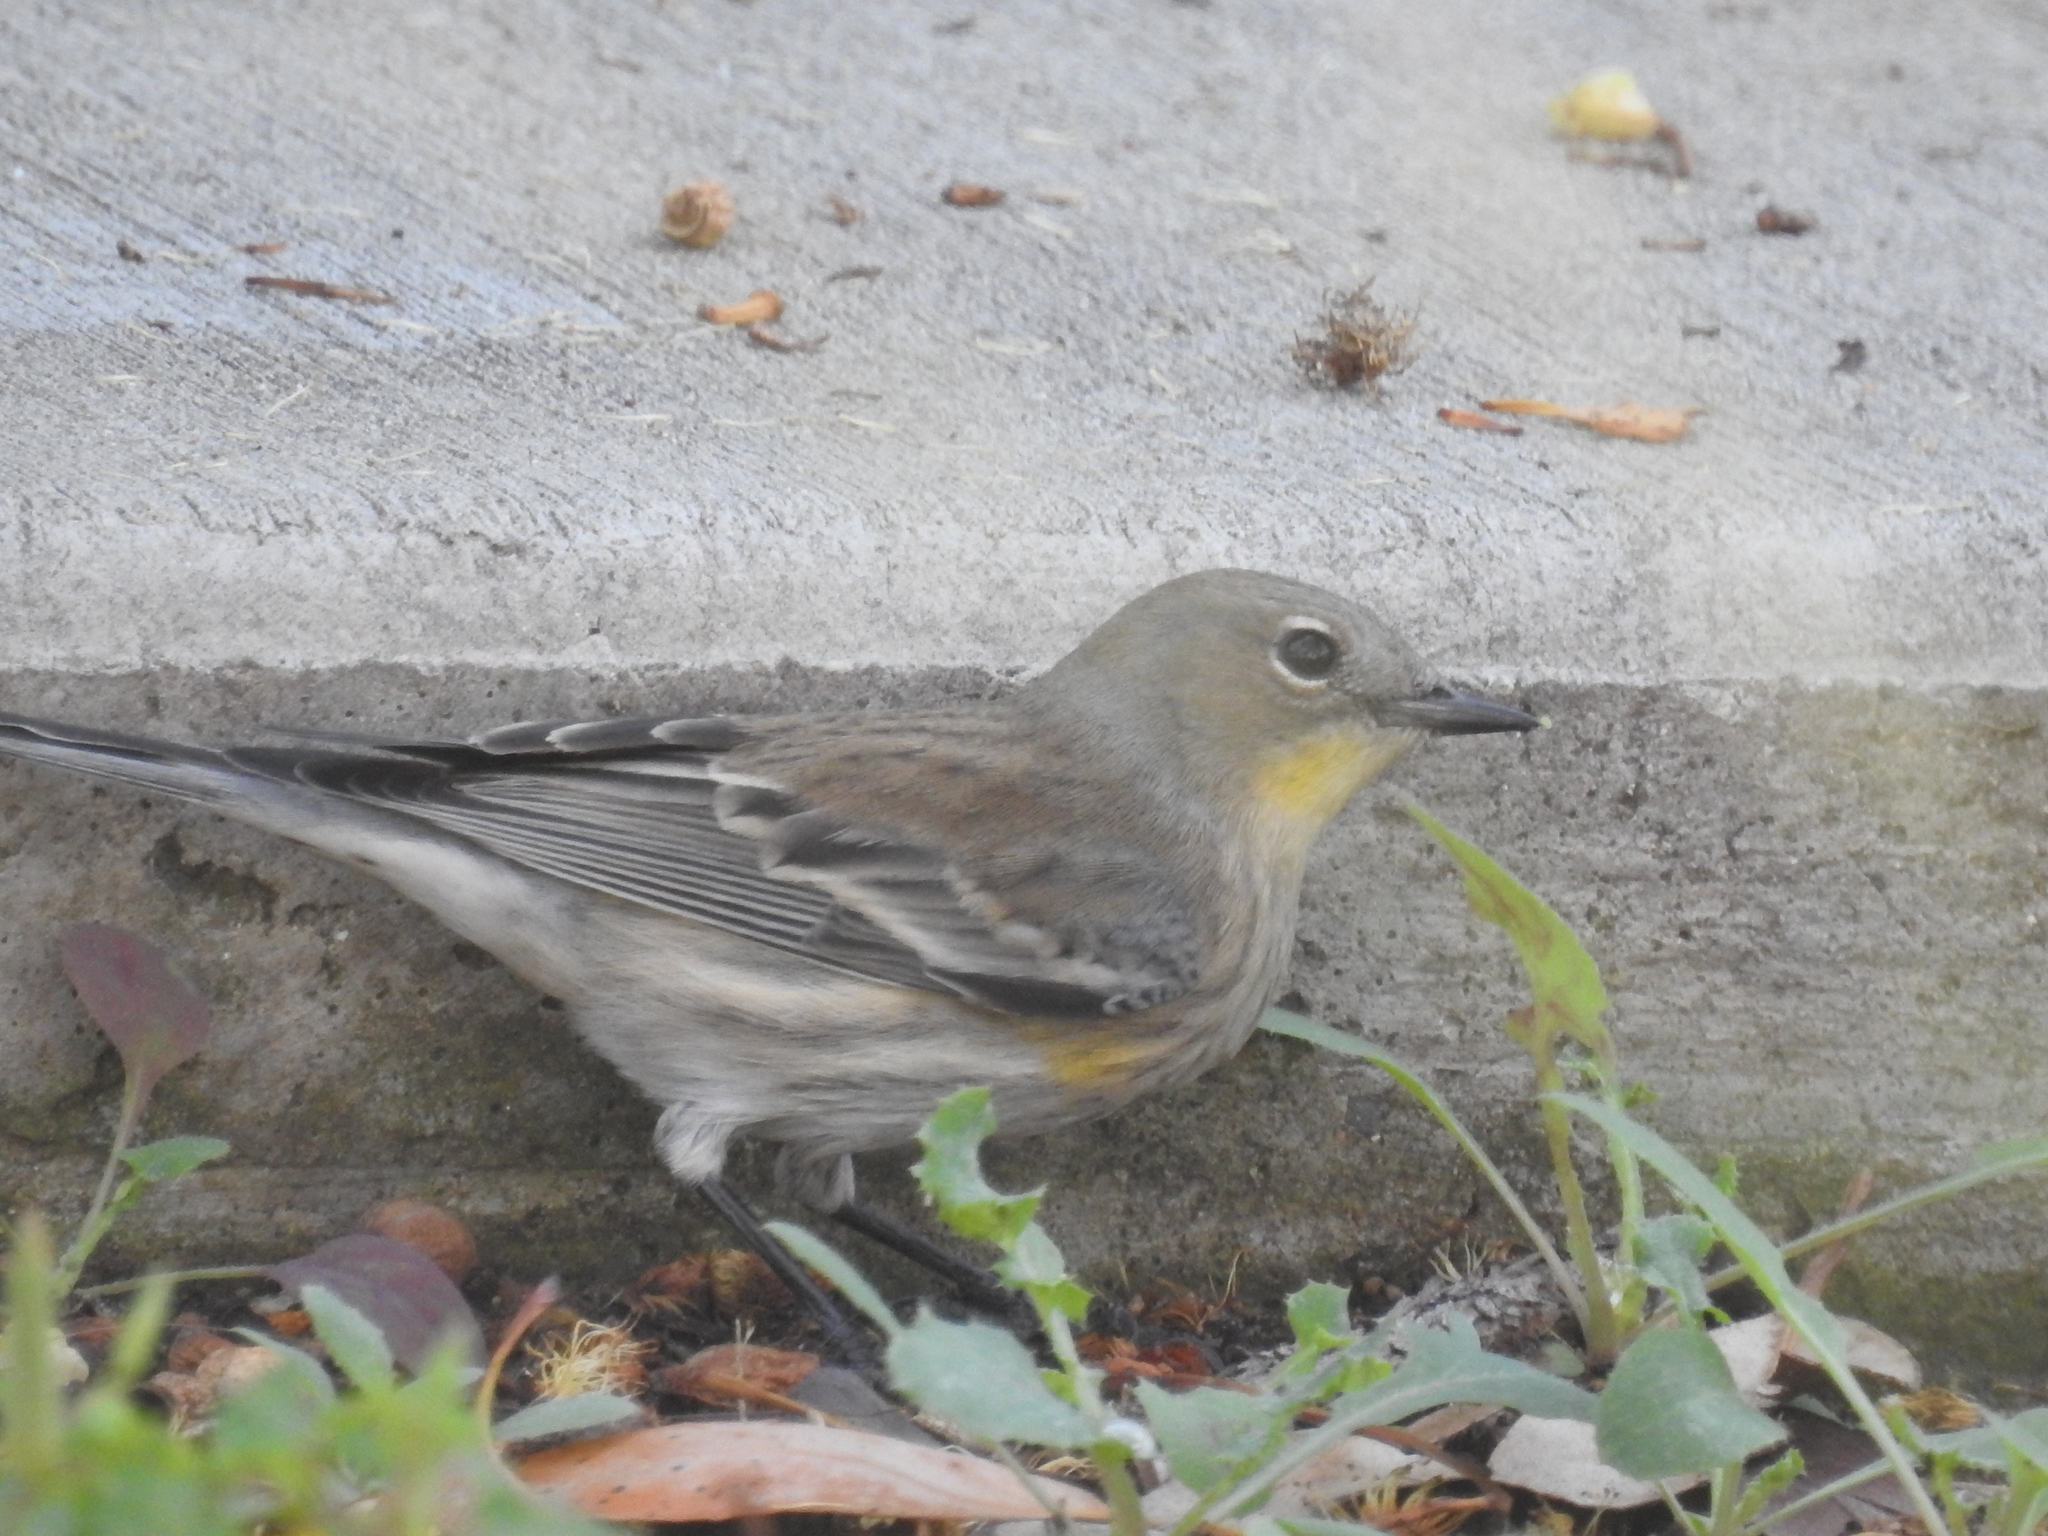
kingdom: Animalia
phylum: Chordata
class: Aves
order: Passeriformes
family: Parulidae
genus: Setophaga
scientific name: Setophaga coronata
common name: Myrtle warbler
